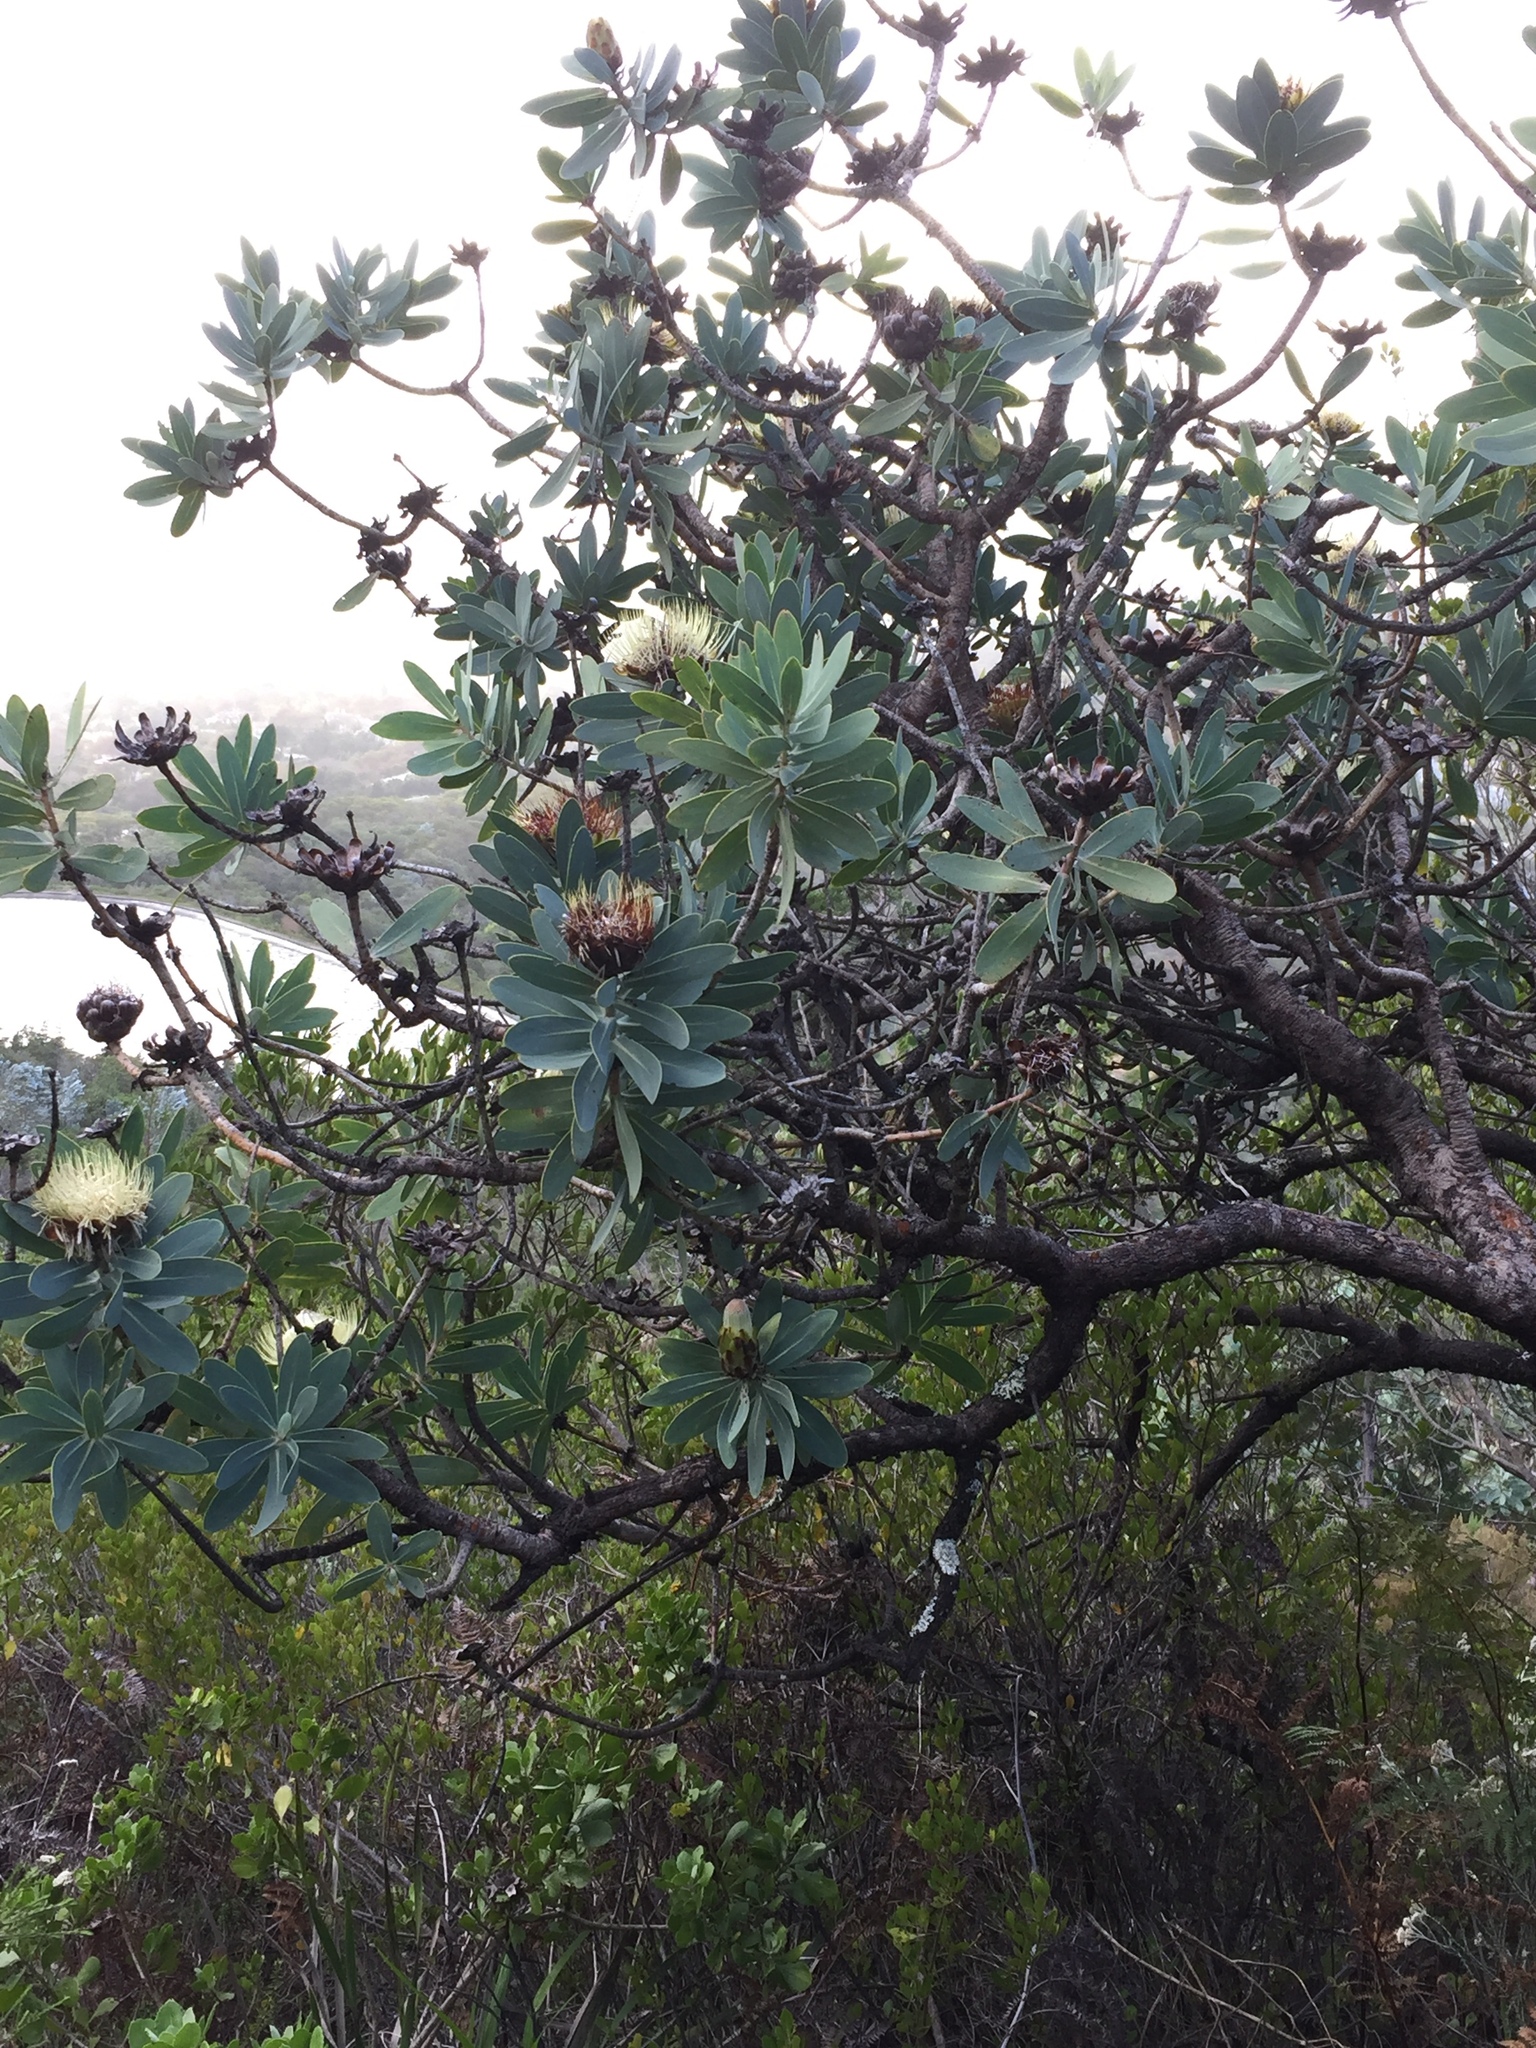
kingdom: Plantae
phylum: Tracheophyta
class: Magnoliopsida
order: Proteales
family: Proteaceae
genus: Protea
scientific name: Protea nitida
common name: Tree protea
